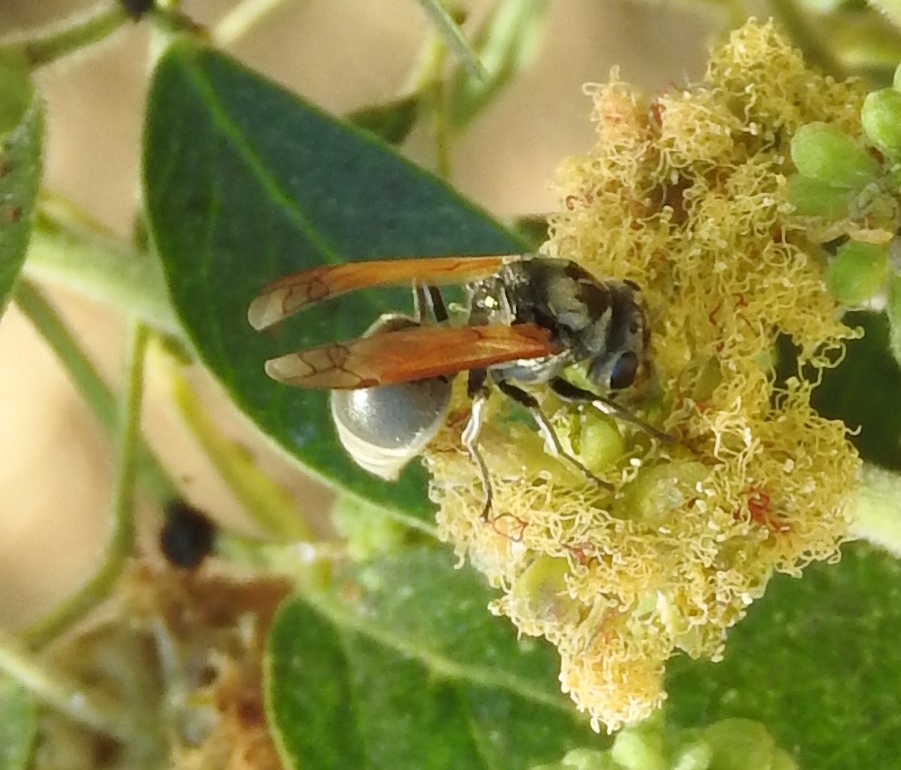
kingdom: Animalia
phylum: Arthropoda
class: Insecta
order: Hymenoptera
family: Vespidae
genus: Brachygastra
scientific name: Brachygastra mellifica
